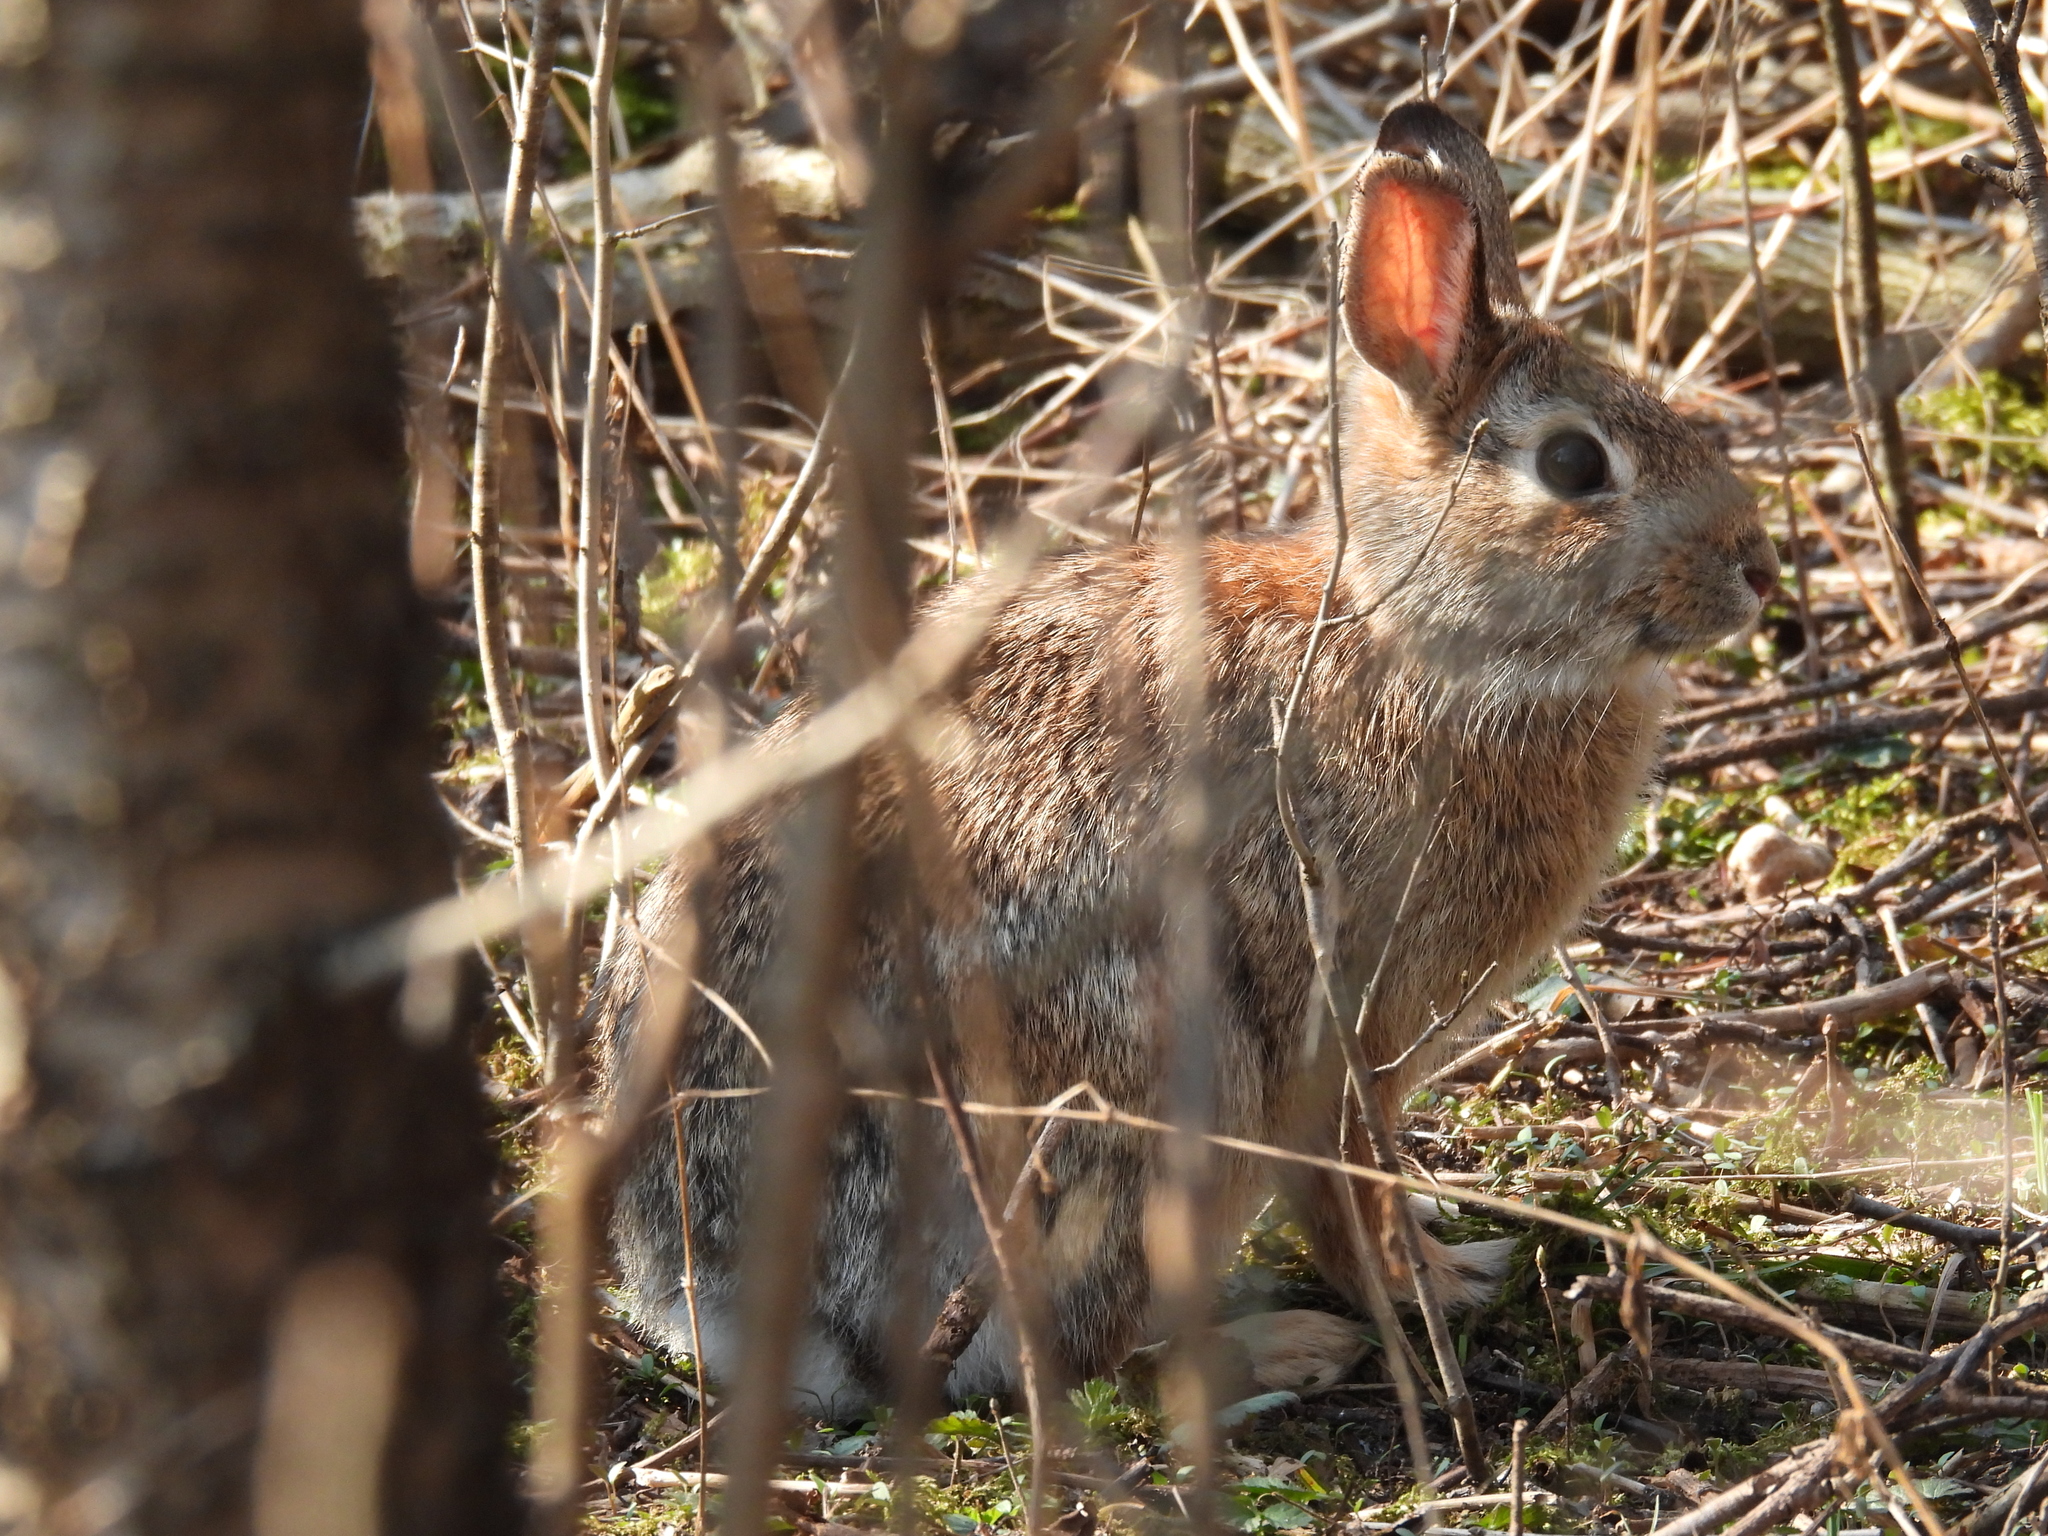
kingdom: Animalia
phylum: Chordata
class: Mammalia
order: Lagomorpha
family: Leporidae
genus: Sylvilagus
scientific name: Sylvilagus floridanus
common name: Eastern cottontail
